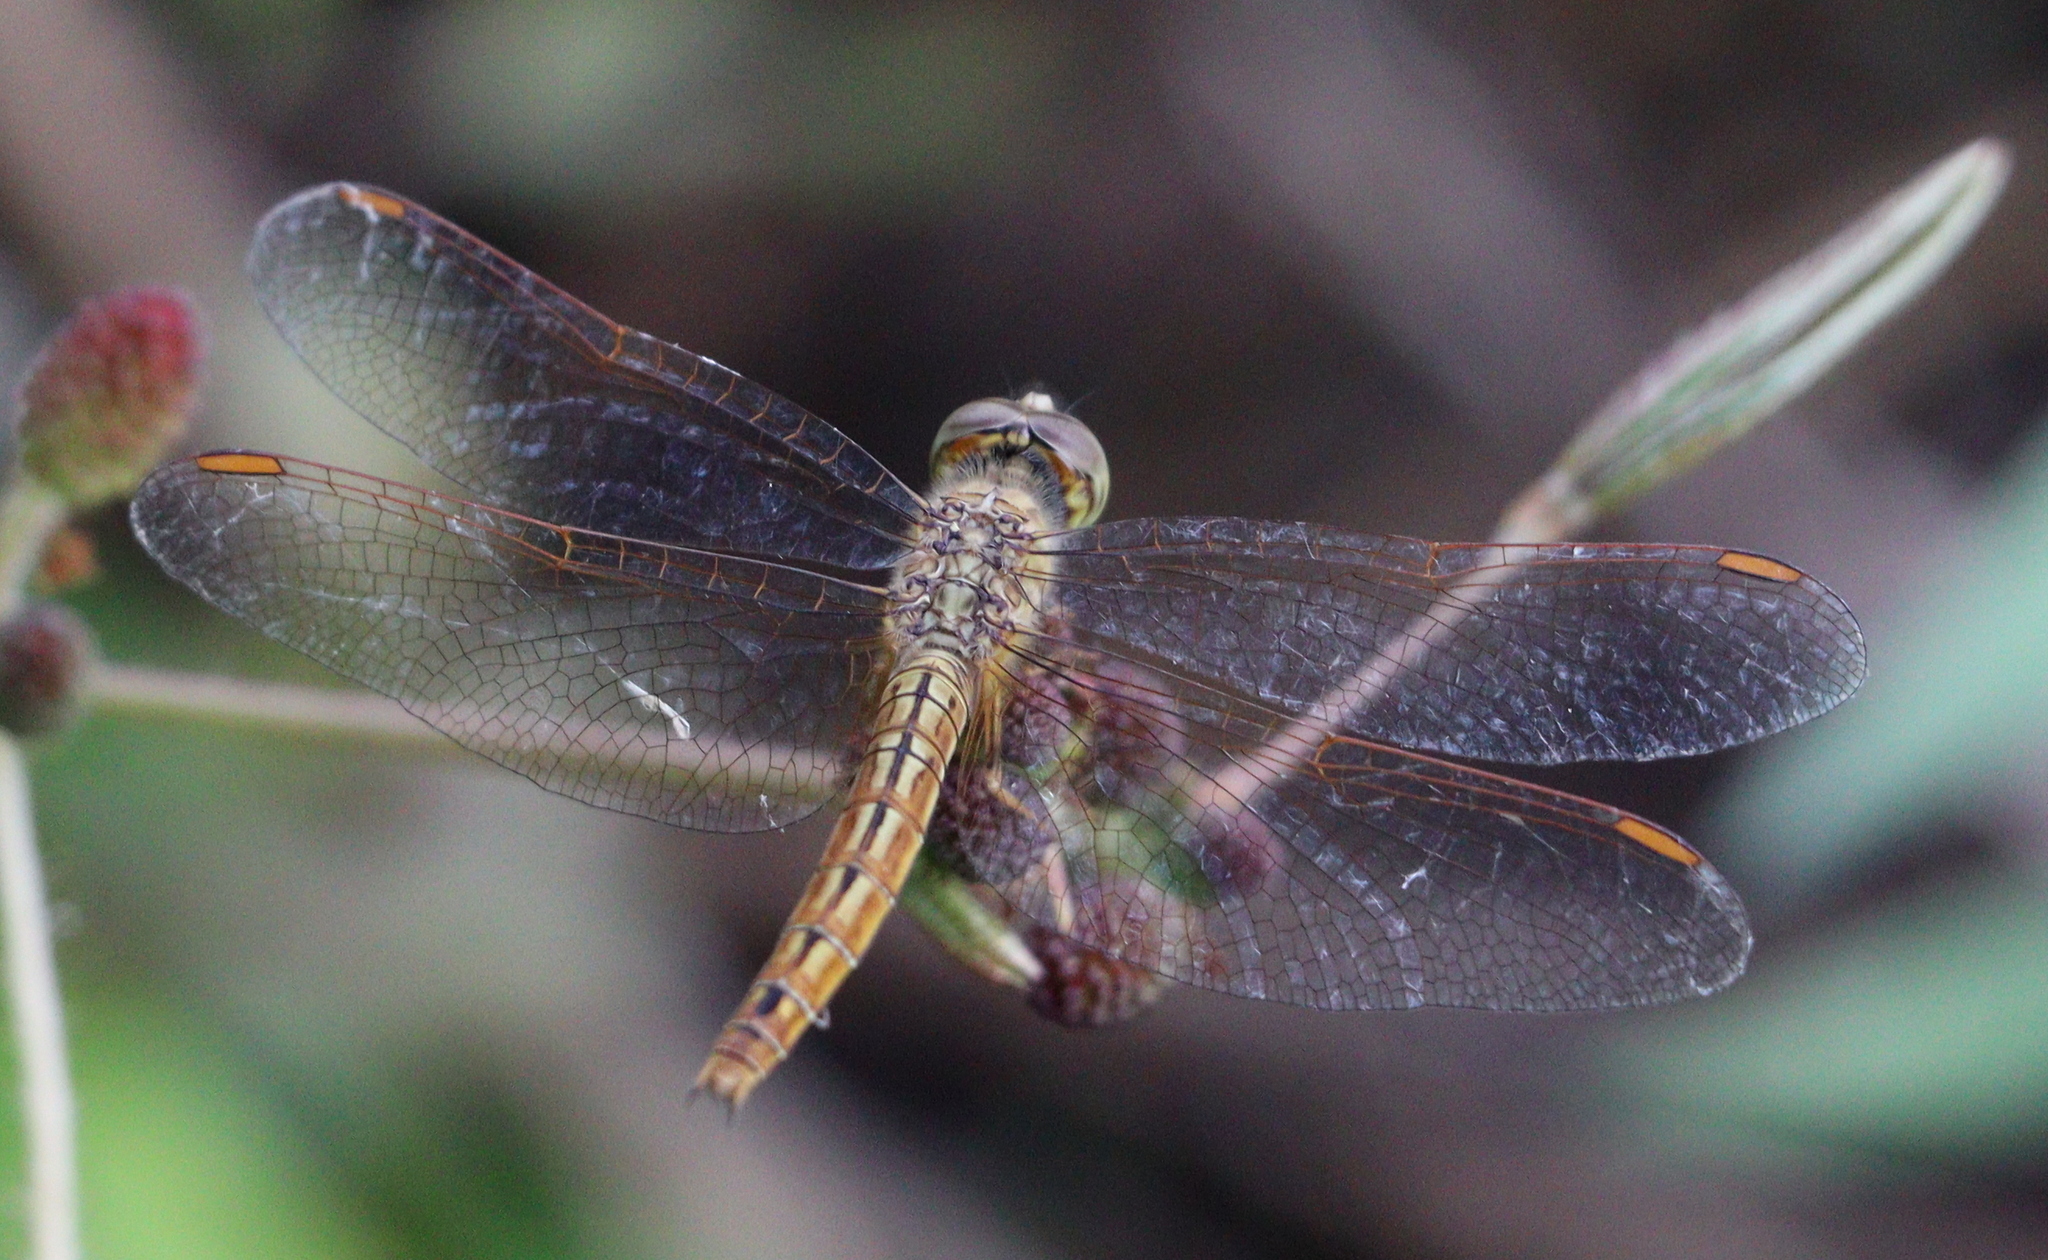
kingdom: Animalia
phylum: Arthropoda
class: Insecta
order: Odonata
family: Libellulidae
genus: Brachythemis
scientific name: Brachythemis contaminata
